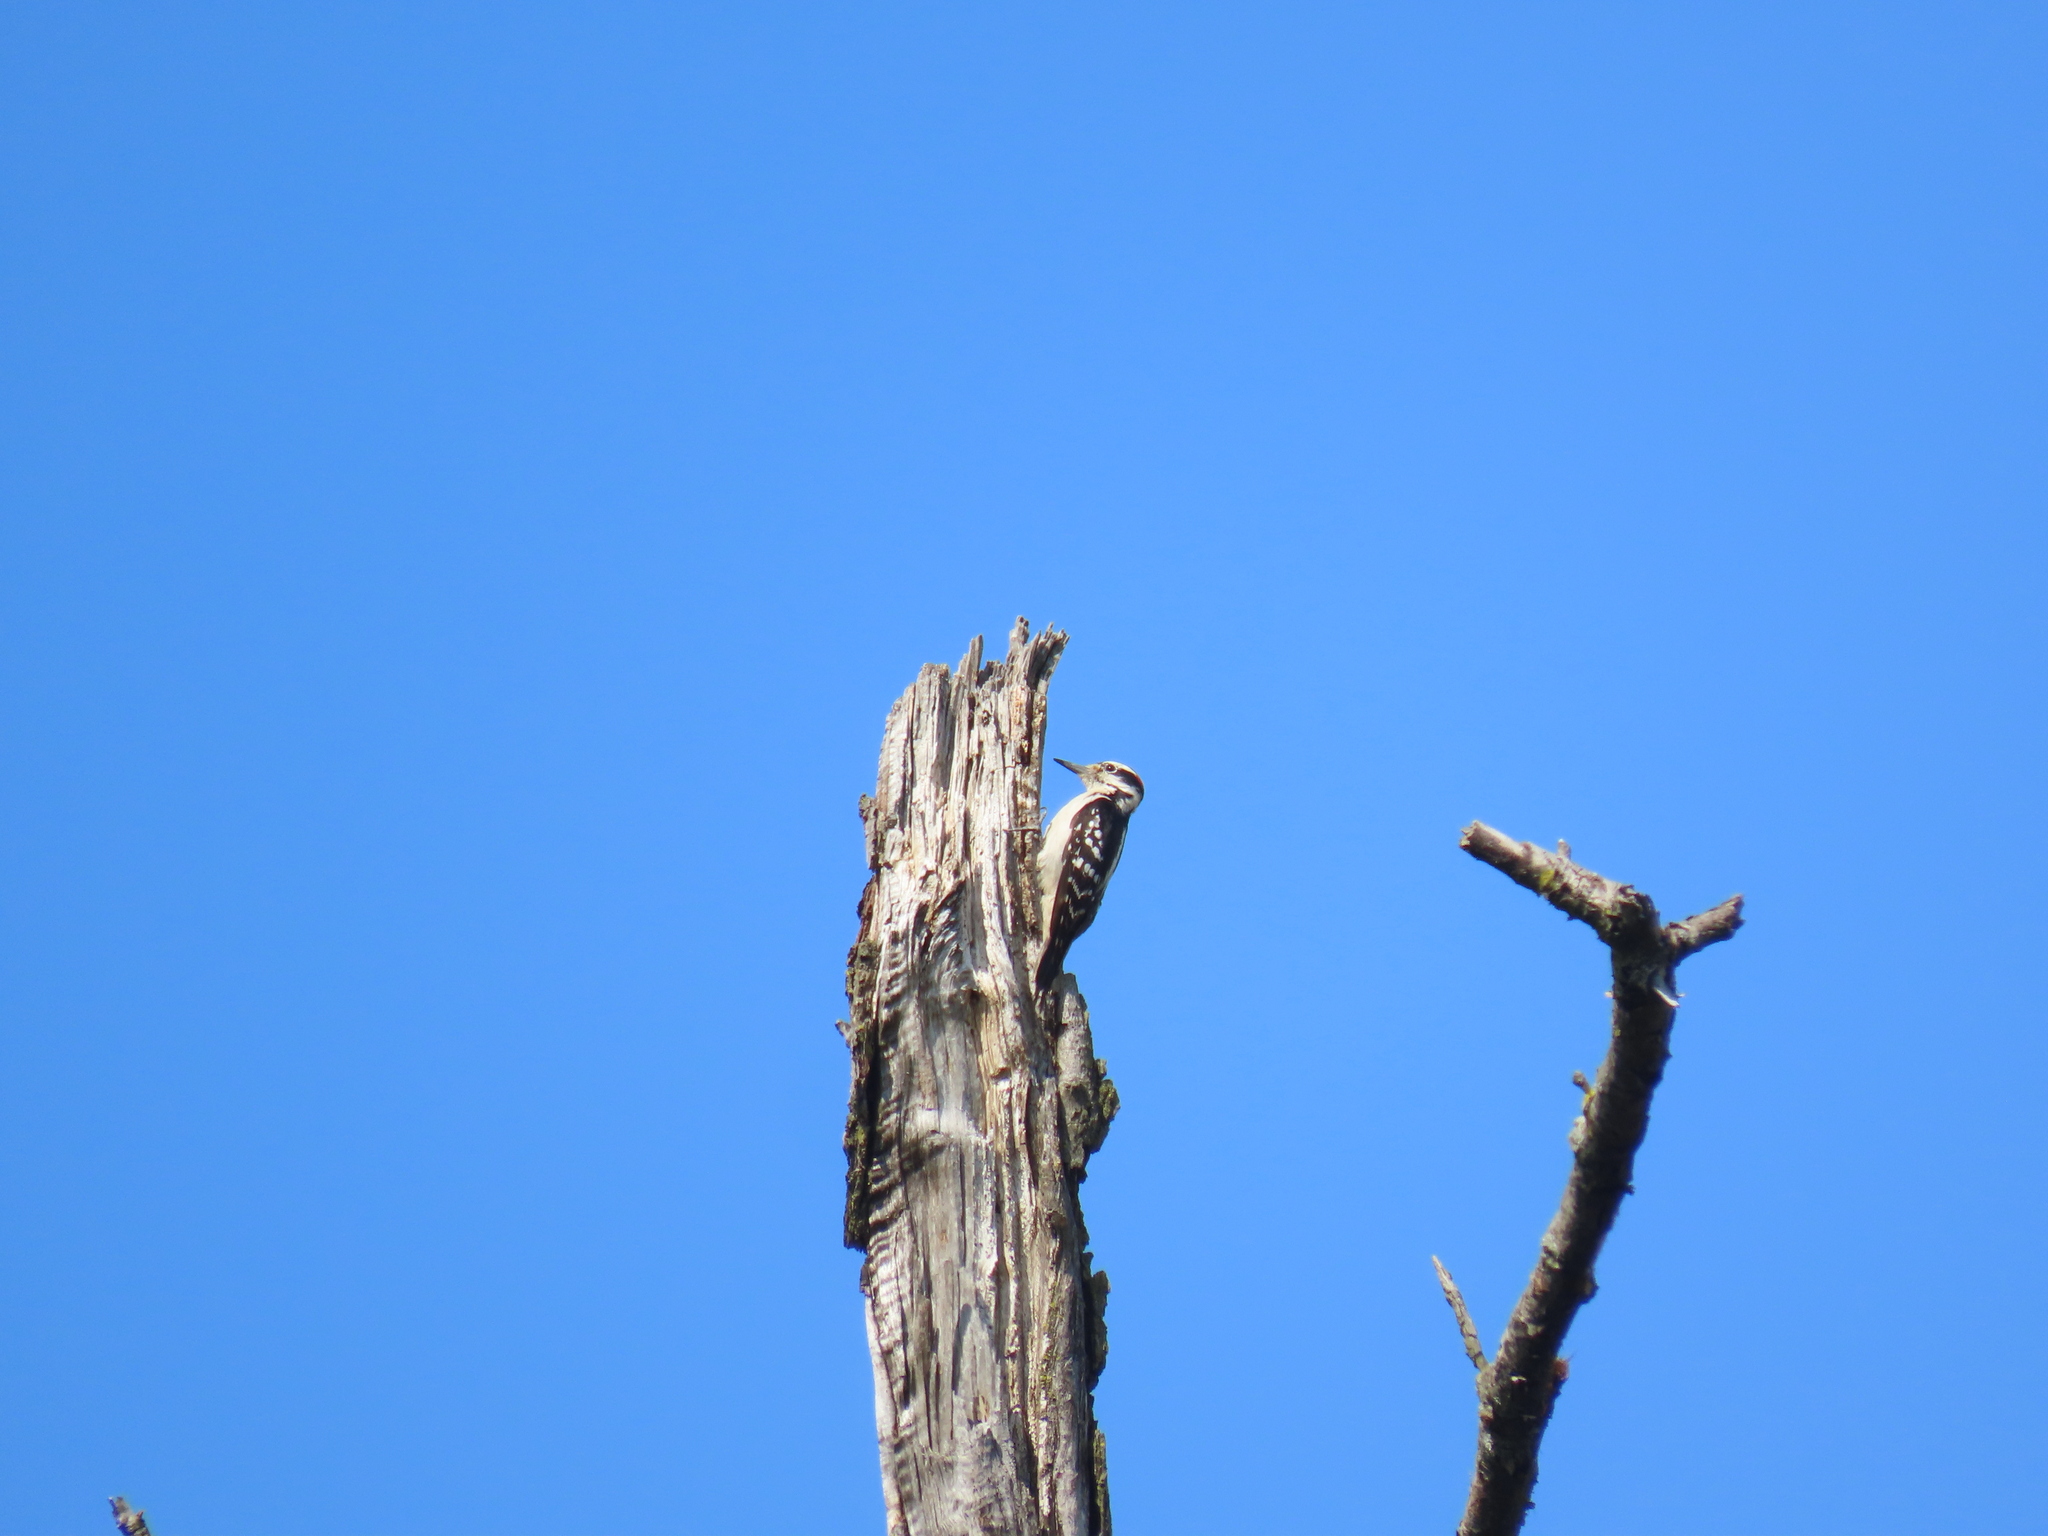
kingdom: Animalia
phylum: Chordata
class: Aves
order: Piciformes
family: Picidae
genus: Leuconotopicus
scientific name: Leuconotopicus villosus
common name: Hairy woodpecker
